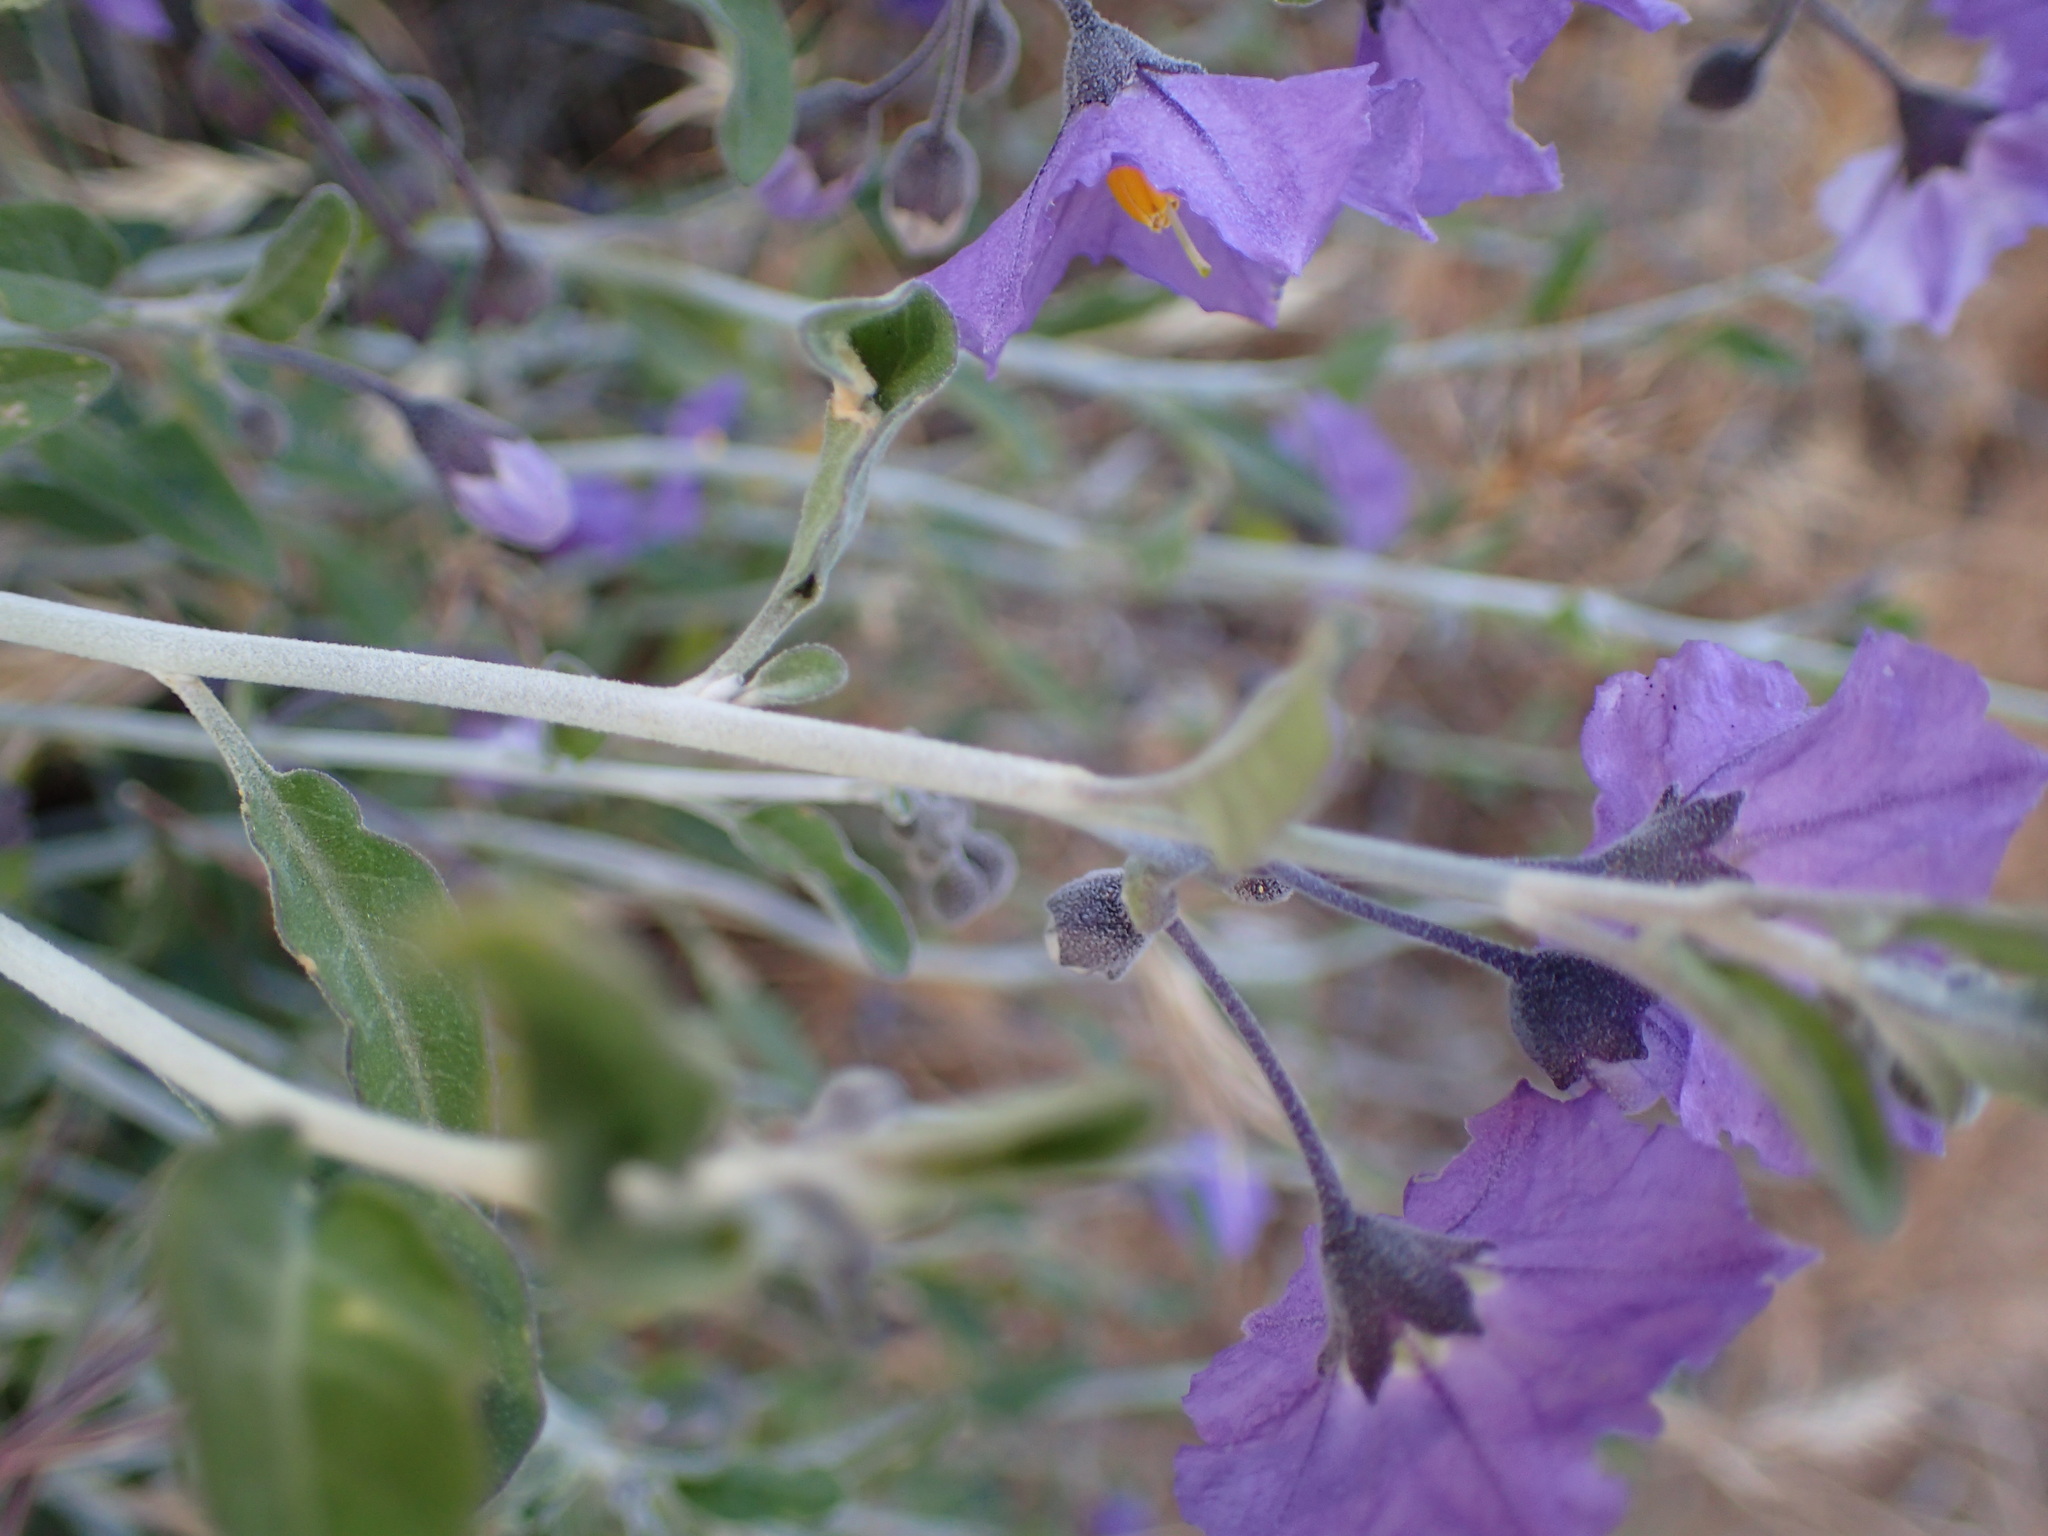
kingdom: Plantae
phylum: Tracheophyta
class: Magnoliopsida
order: Solanales
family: Solanaceae
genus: Solanum
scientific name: Solanum umbelliferum
